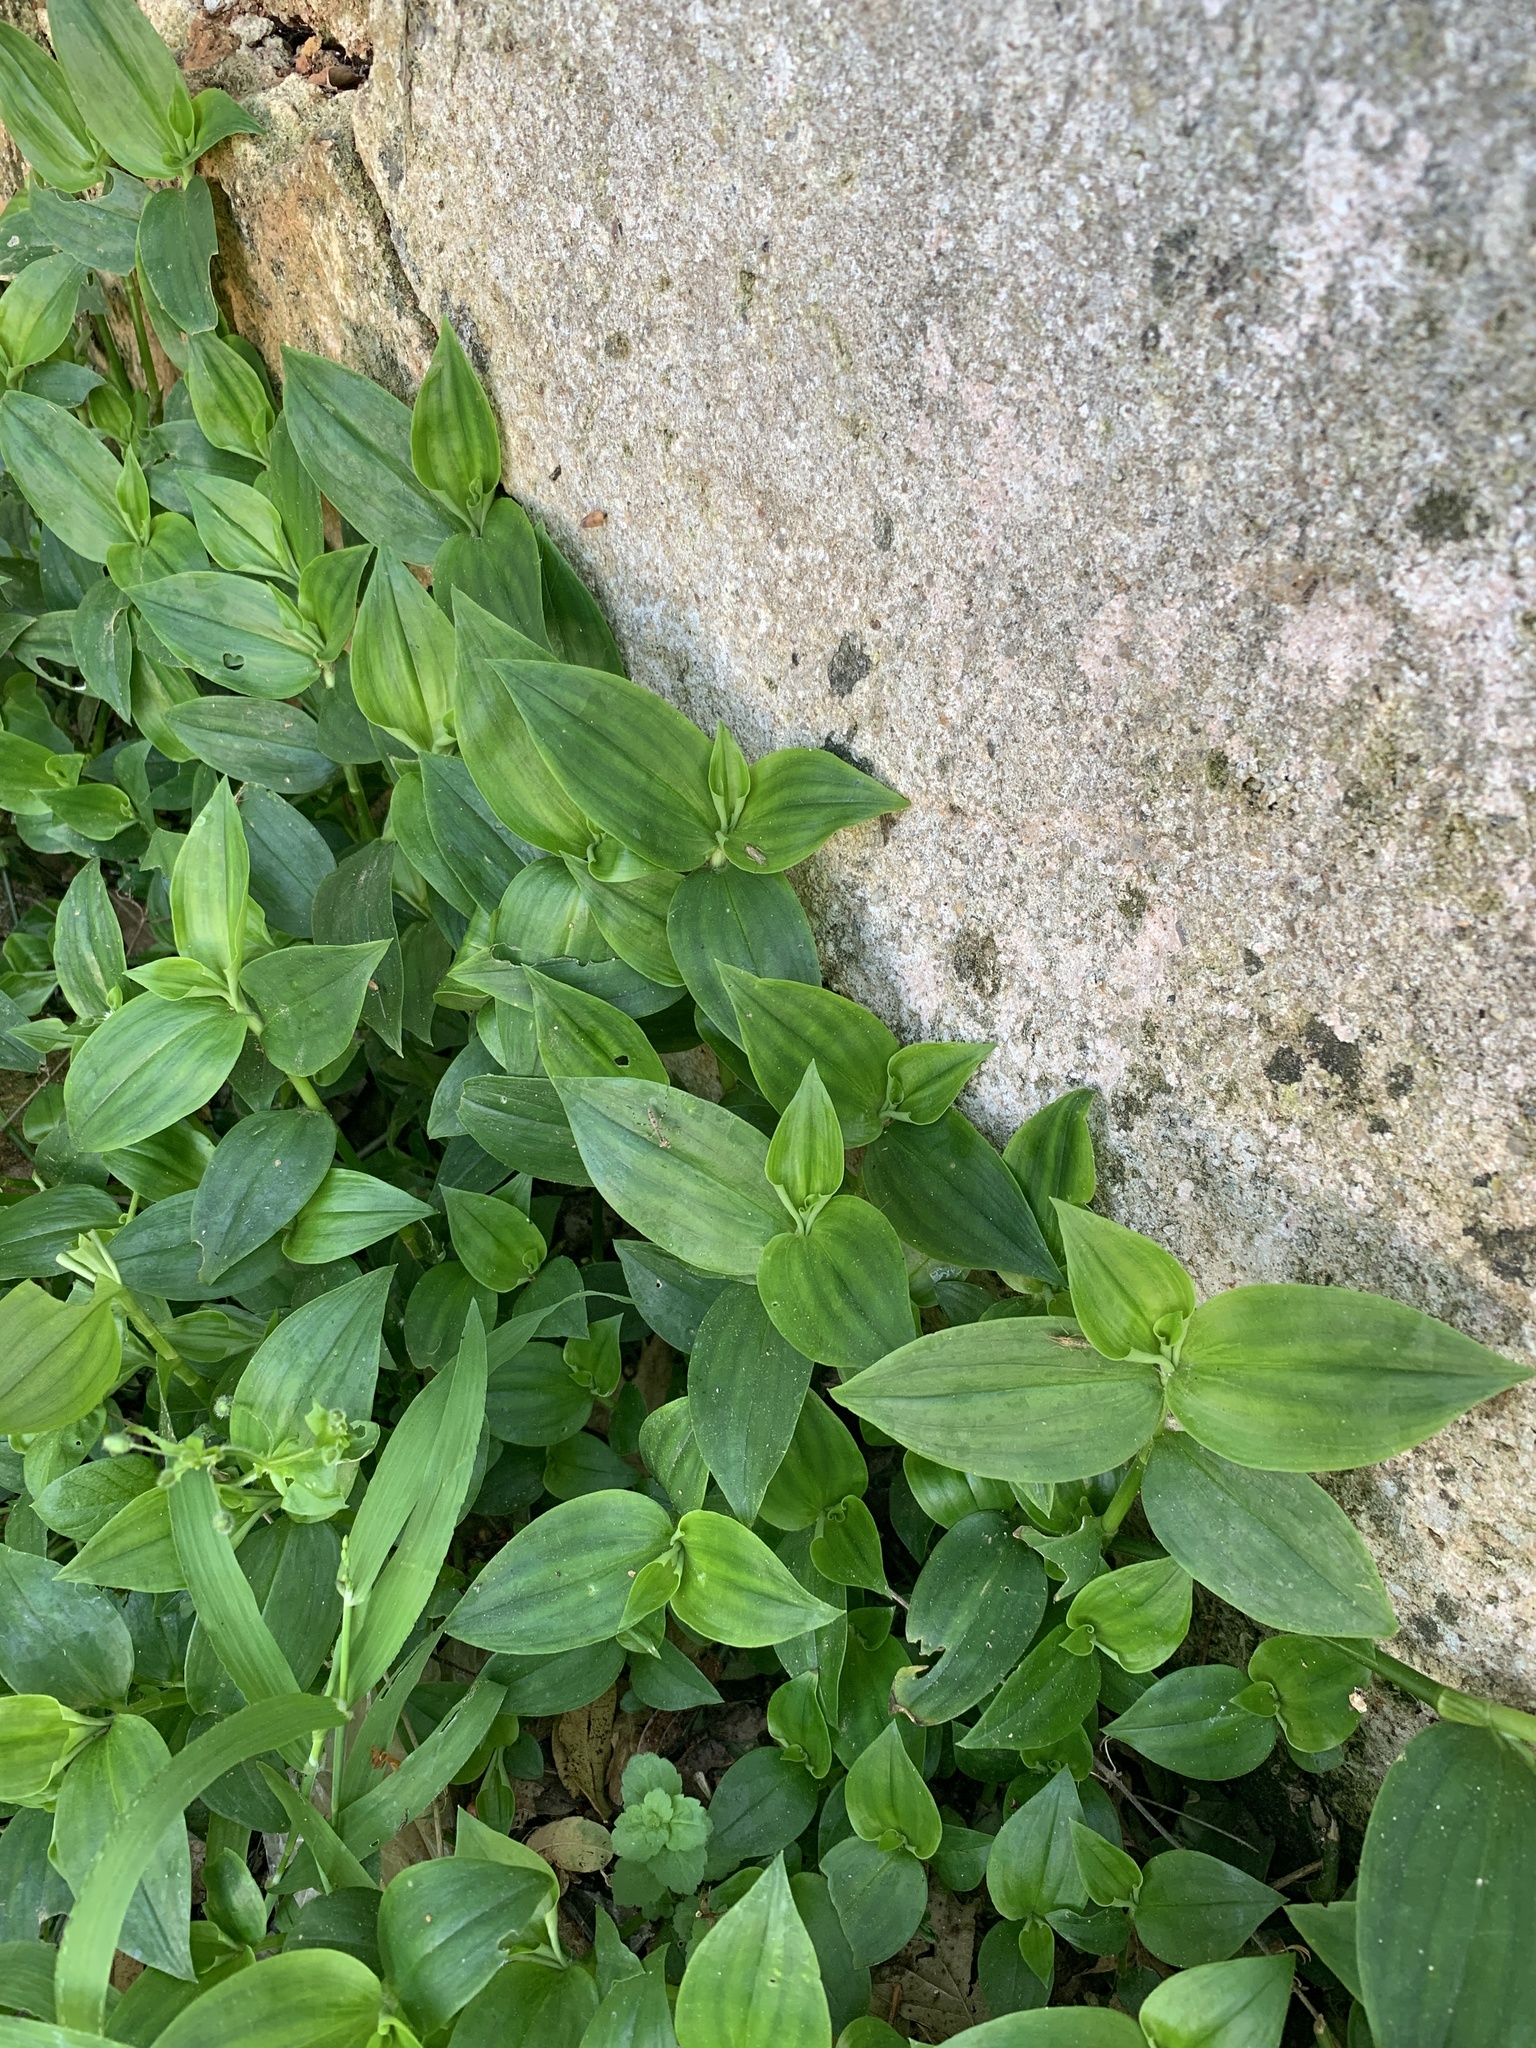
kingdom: Plantae
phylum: Tracheophyta
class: Liliopsida
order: Commelinales
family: Commelinaceae
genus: Tradescantia
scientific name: Tradescantia fluminensis
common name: Wandering-jew
